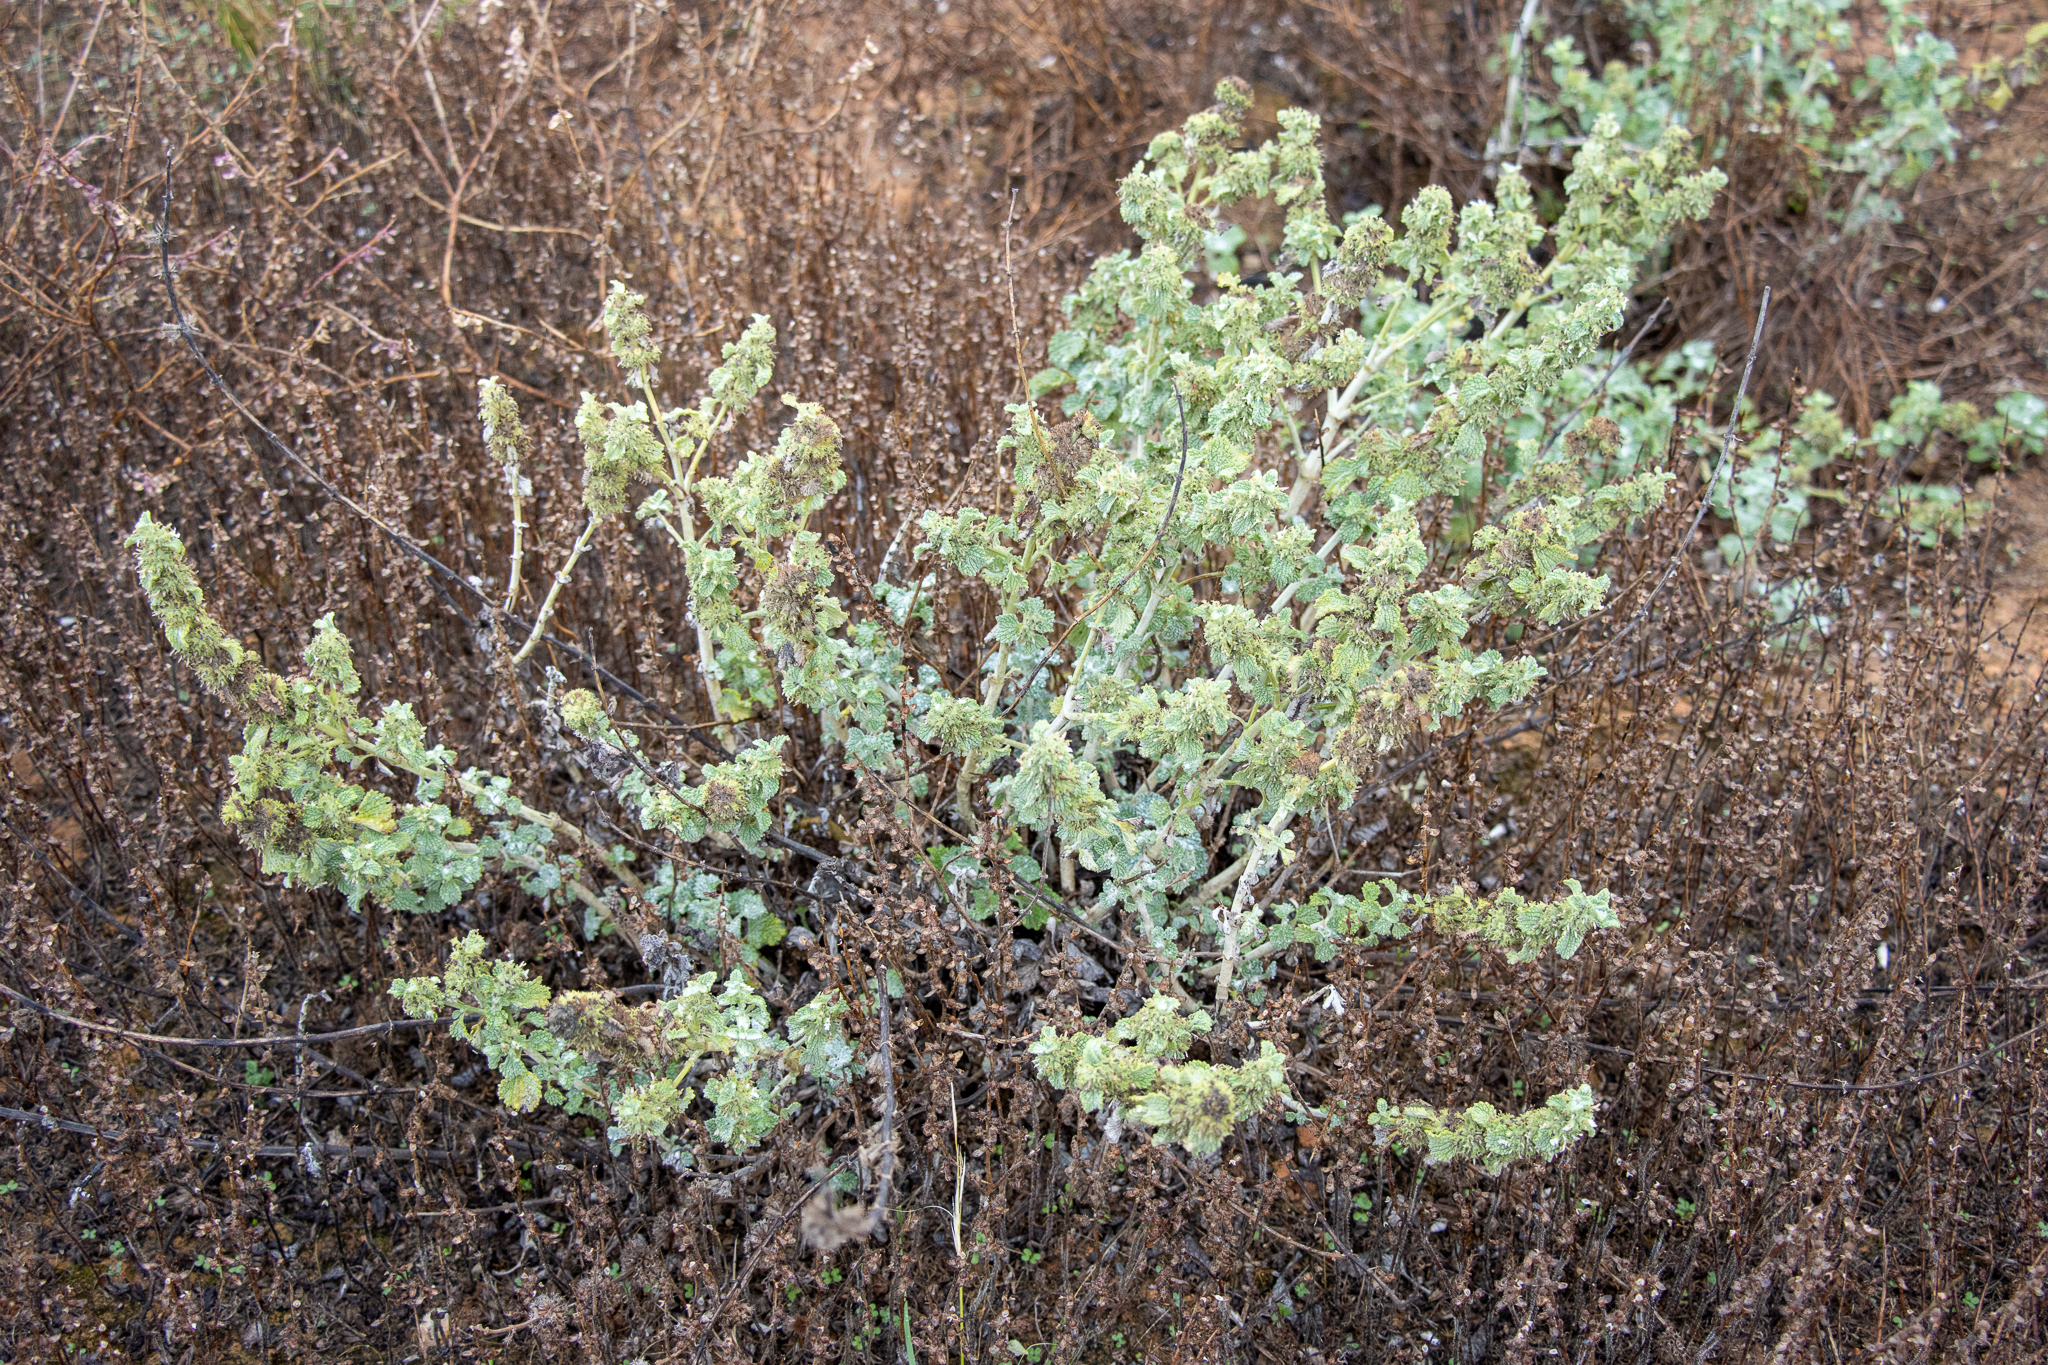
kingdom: Plantae
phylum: Tracheophyta
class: Magnoliopsida
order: Lamiales
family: Lamiaceae
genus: Marrubium
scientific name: Marrubium vulgare
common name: Horehound
